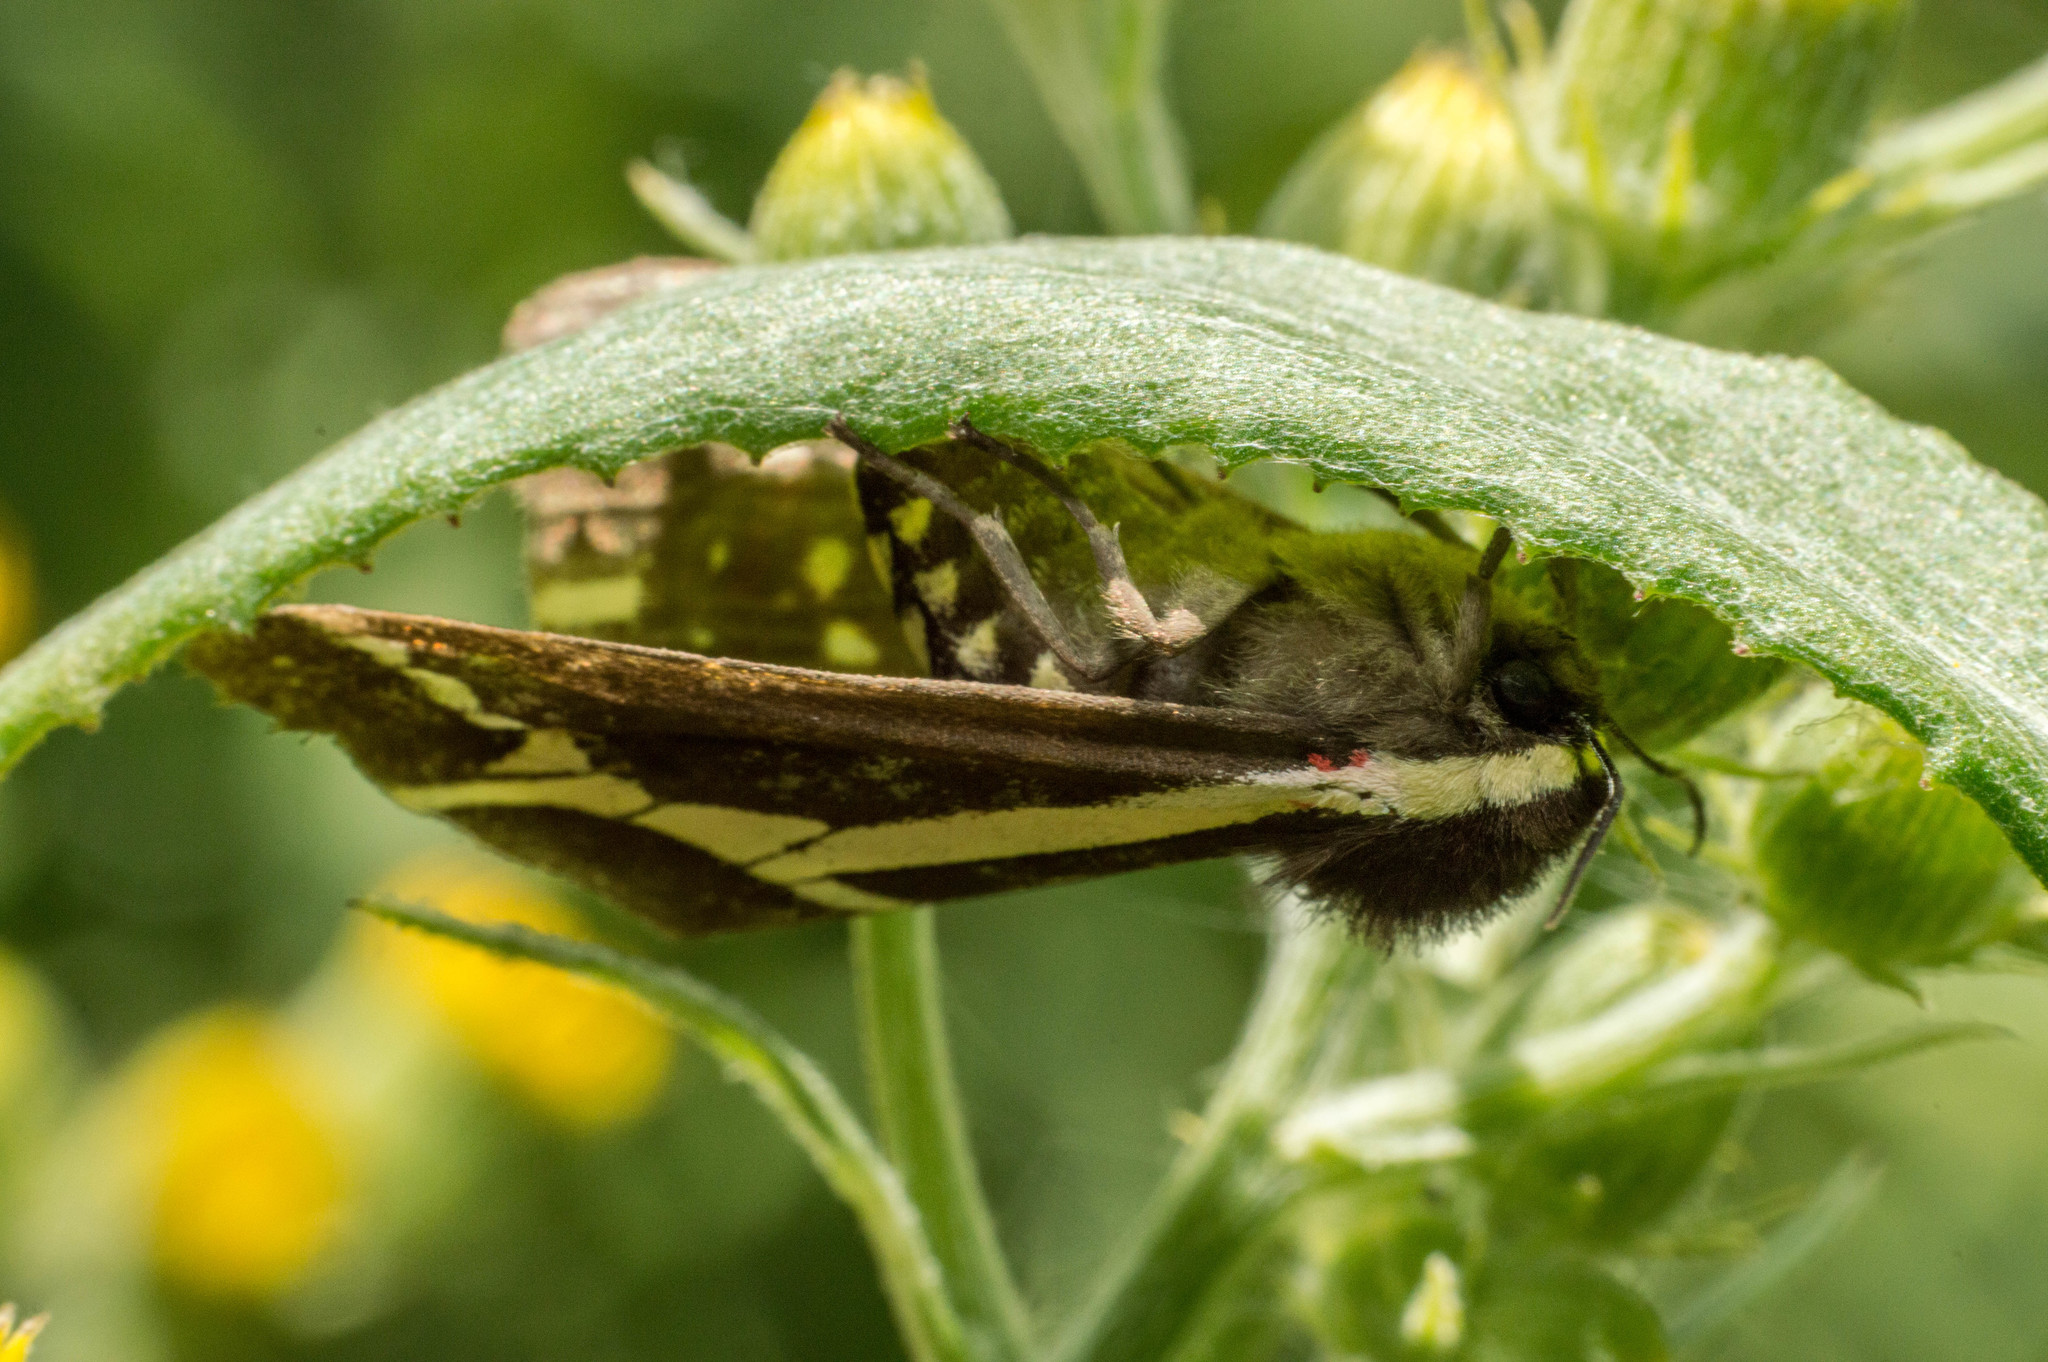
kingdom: Animalia
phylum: Arthropoda
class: Insecta
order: Lepidoptera
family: Erebidae
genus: Dysschema
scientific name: Dysschema sacrifica
